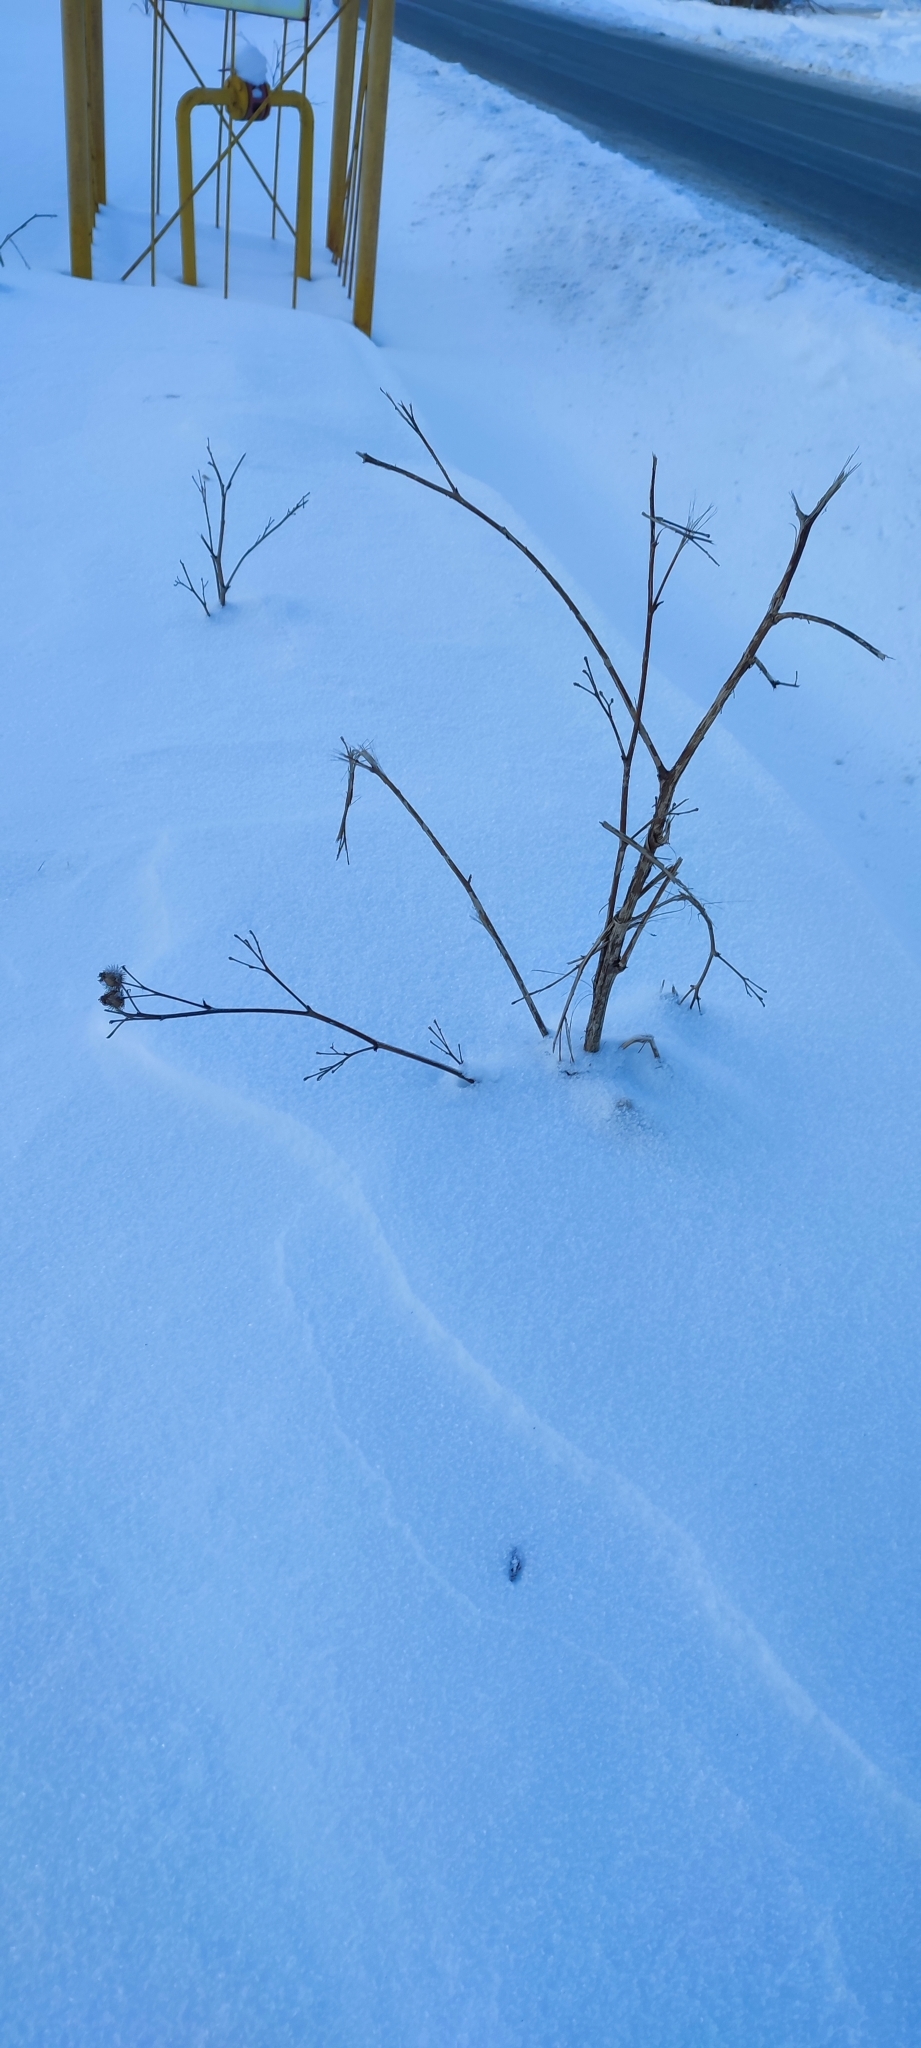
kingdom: Plantae
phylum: Tracheophyta
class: Magnoliopsida
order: Asterales
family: Asteraceae
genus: Arctium
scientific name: Arctium tomentosum
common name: Woolly burdock
